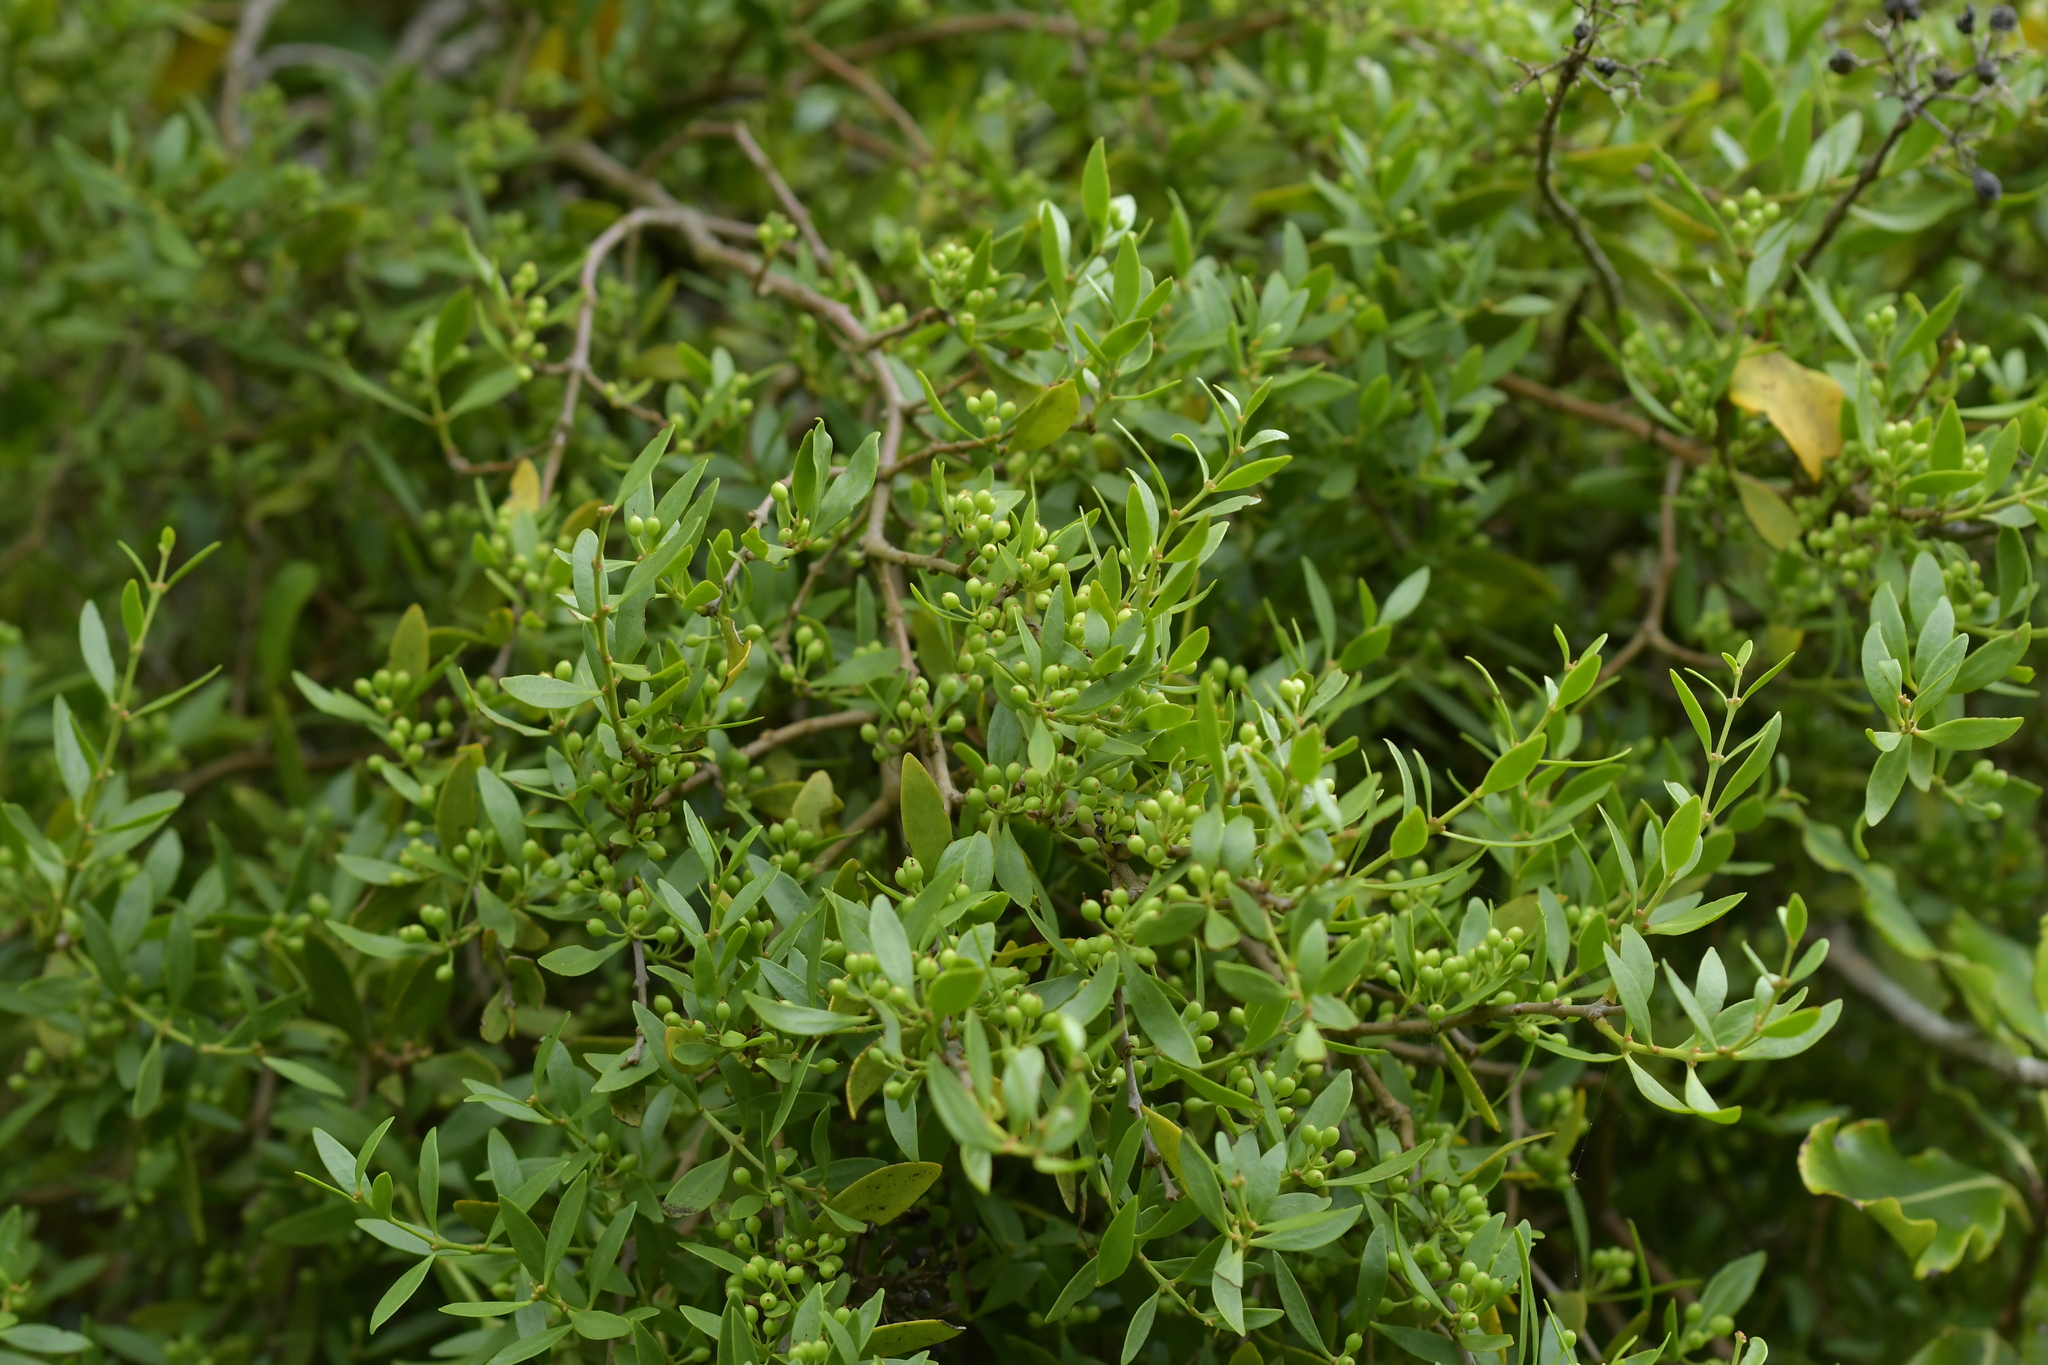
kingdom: Plantae
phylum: Tracheophyta
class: Magnoliopsida
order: Santalales
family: Loranthaceae
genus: Tupeia
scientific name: Tupeia antarctica
